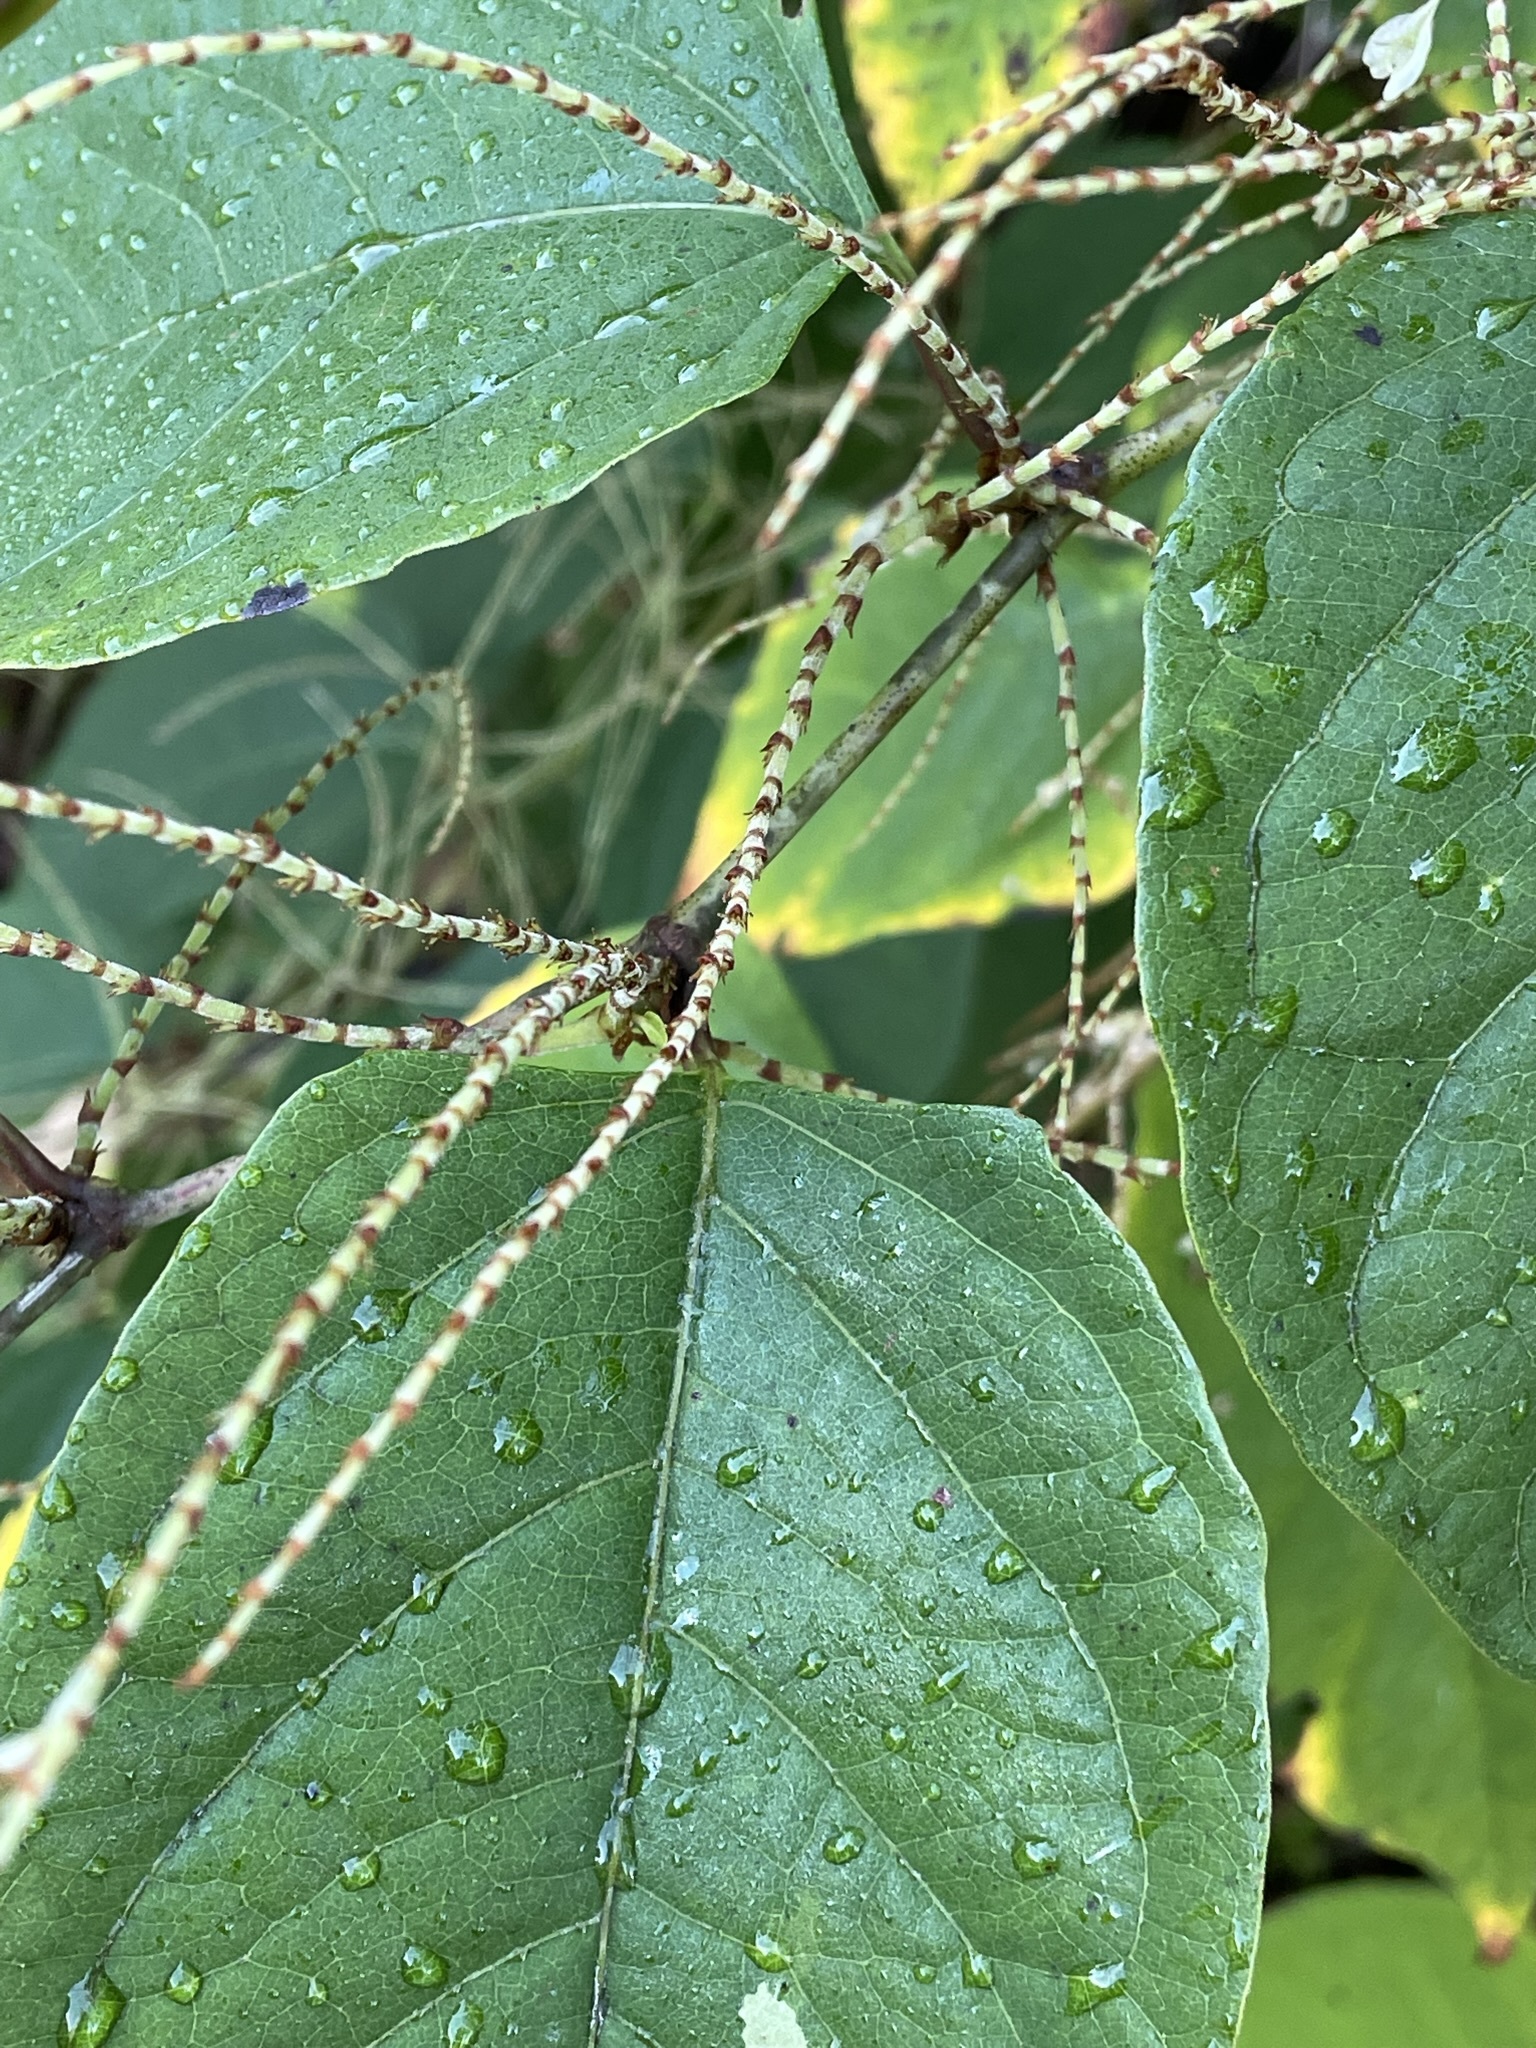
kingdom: Plantae
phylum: Tracheophyta
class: Magnoliopsida
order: Caryophyllales
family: Polygonaceae
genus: Reynoutria
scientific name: Reynoutria japonica
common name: Japanese knotweed
